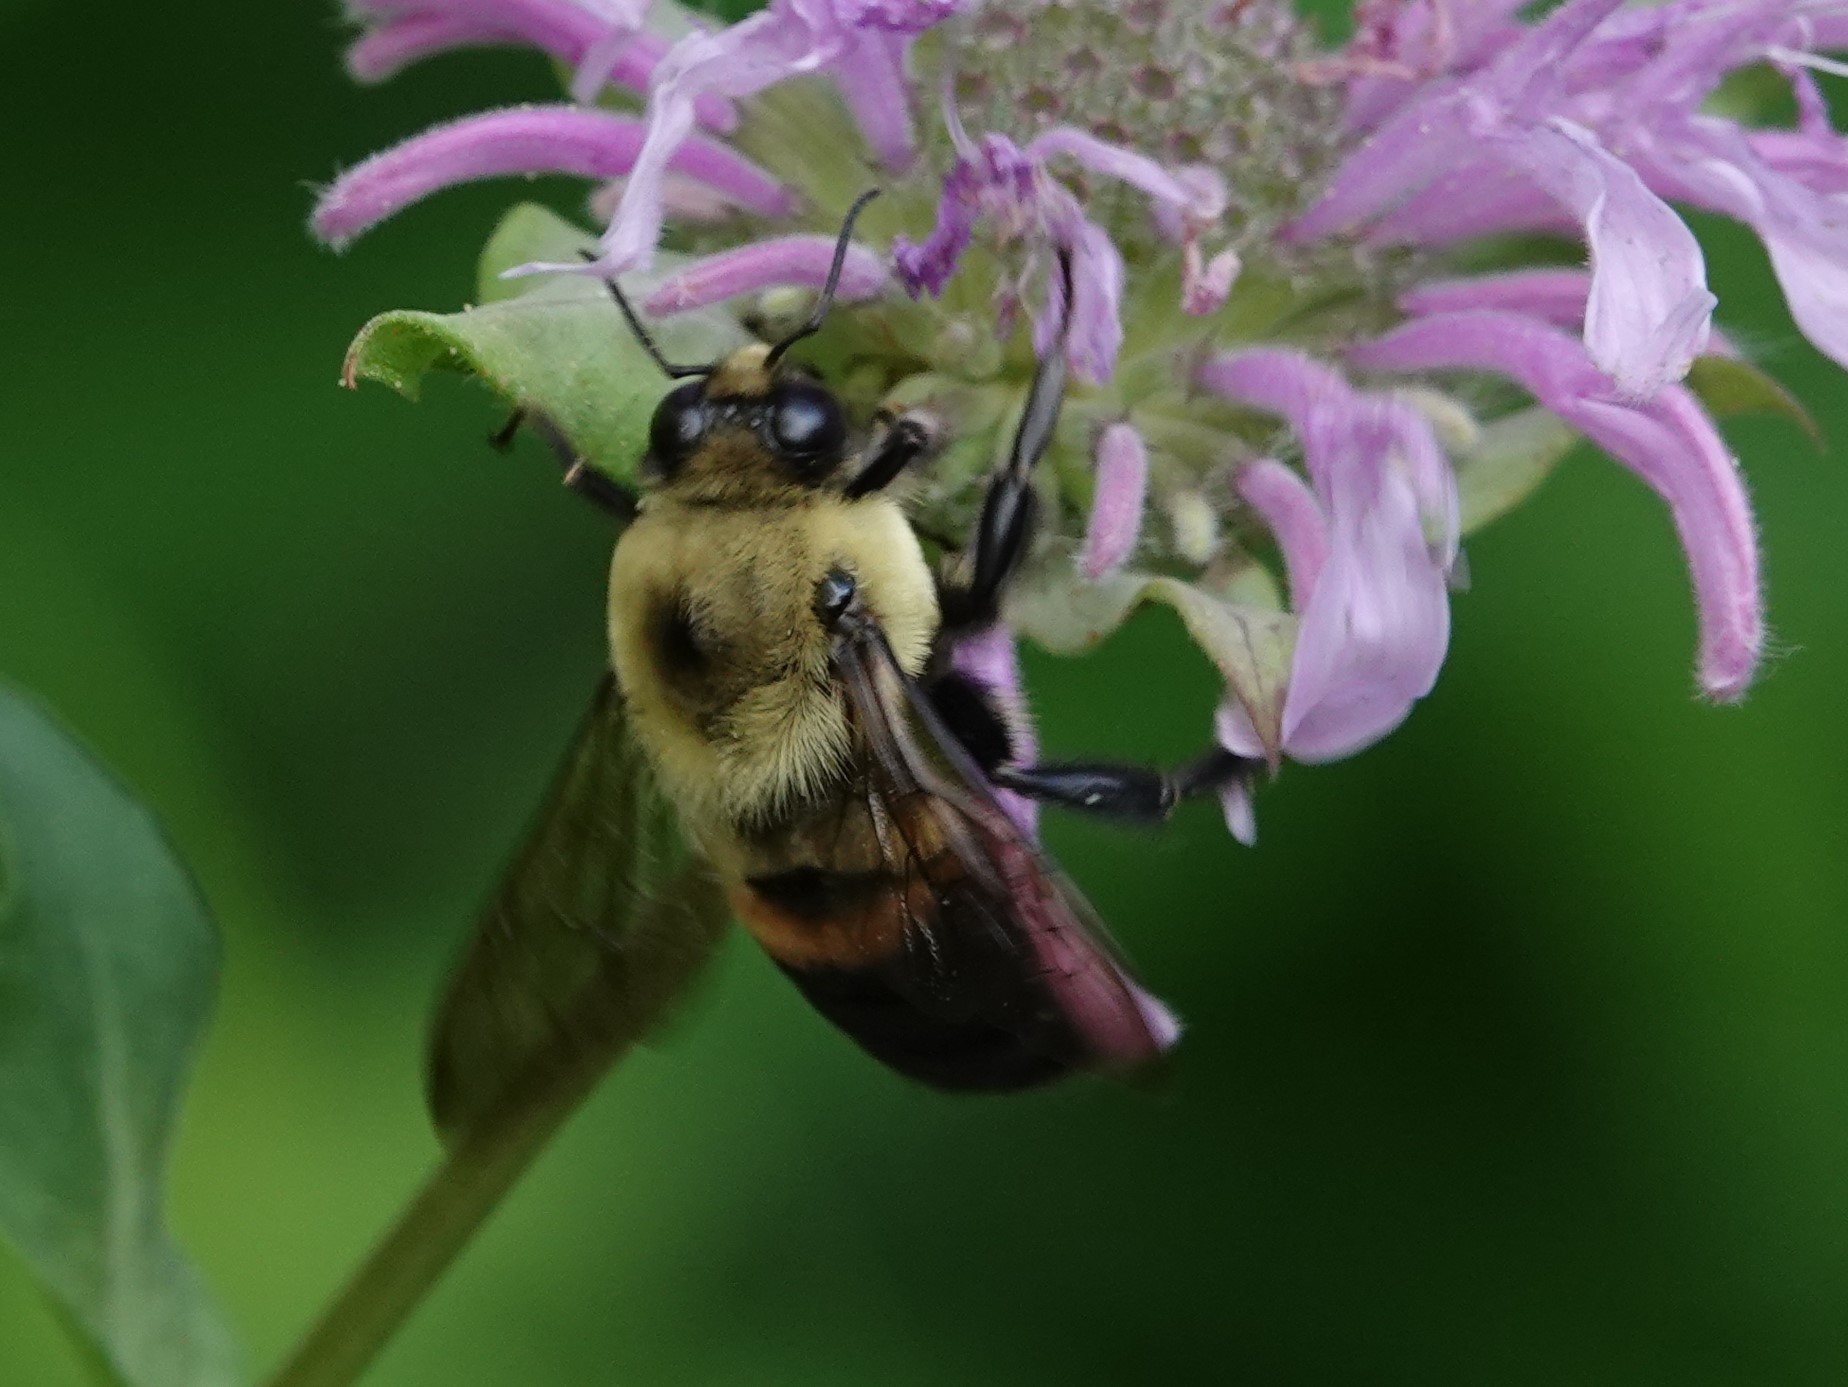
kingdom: Animalia
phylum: Arthropoda
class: Insecta
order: Hymenoptera
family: Apidae
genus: Bombus
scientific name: Bombus griseocollis
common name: Brown-belted bumble bee
